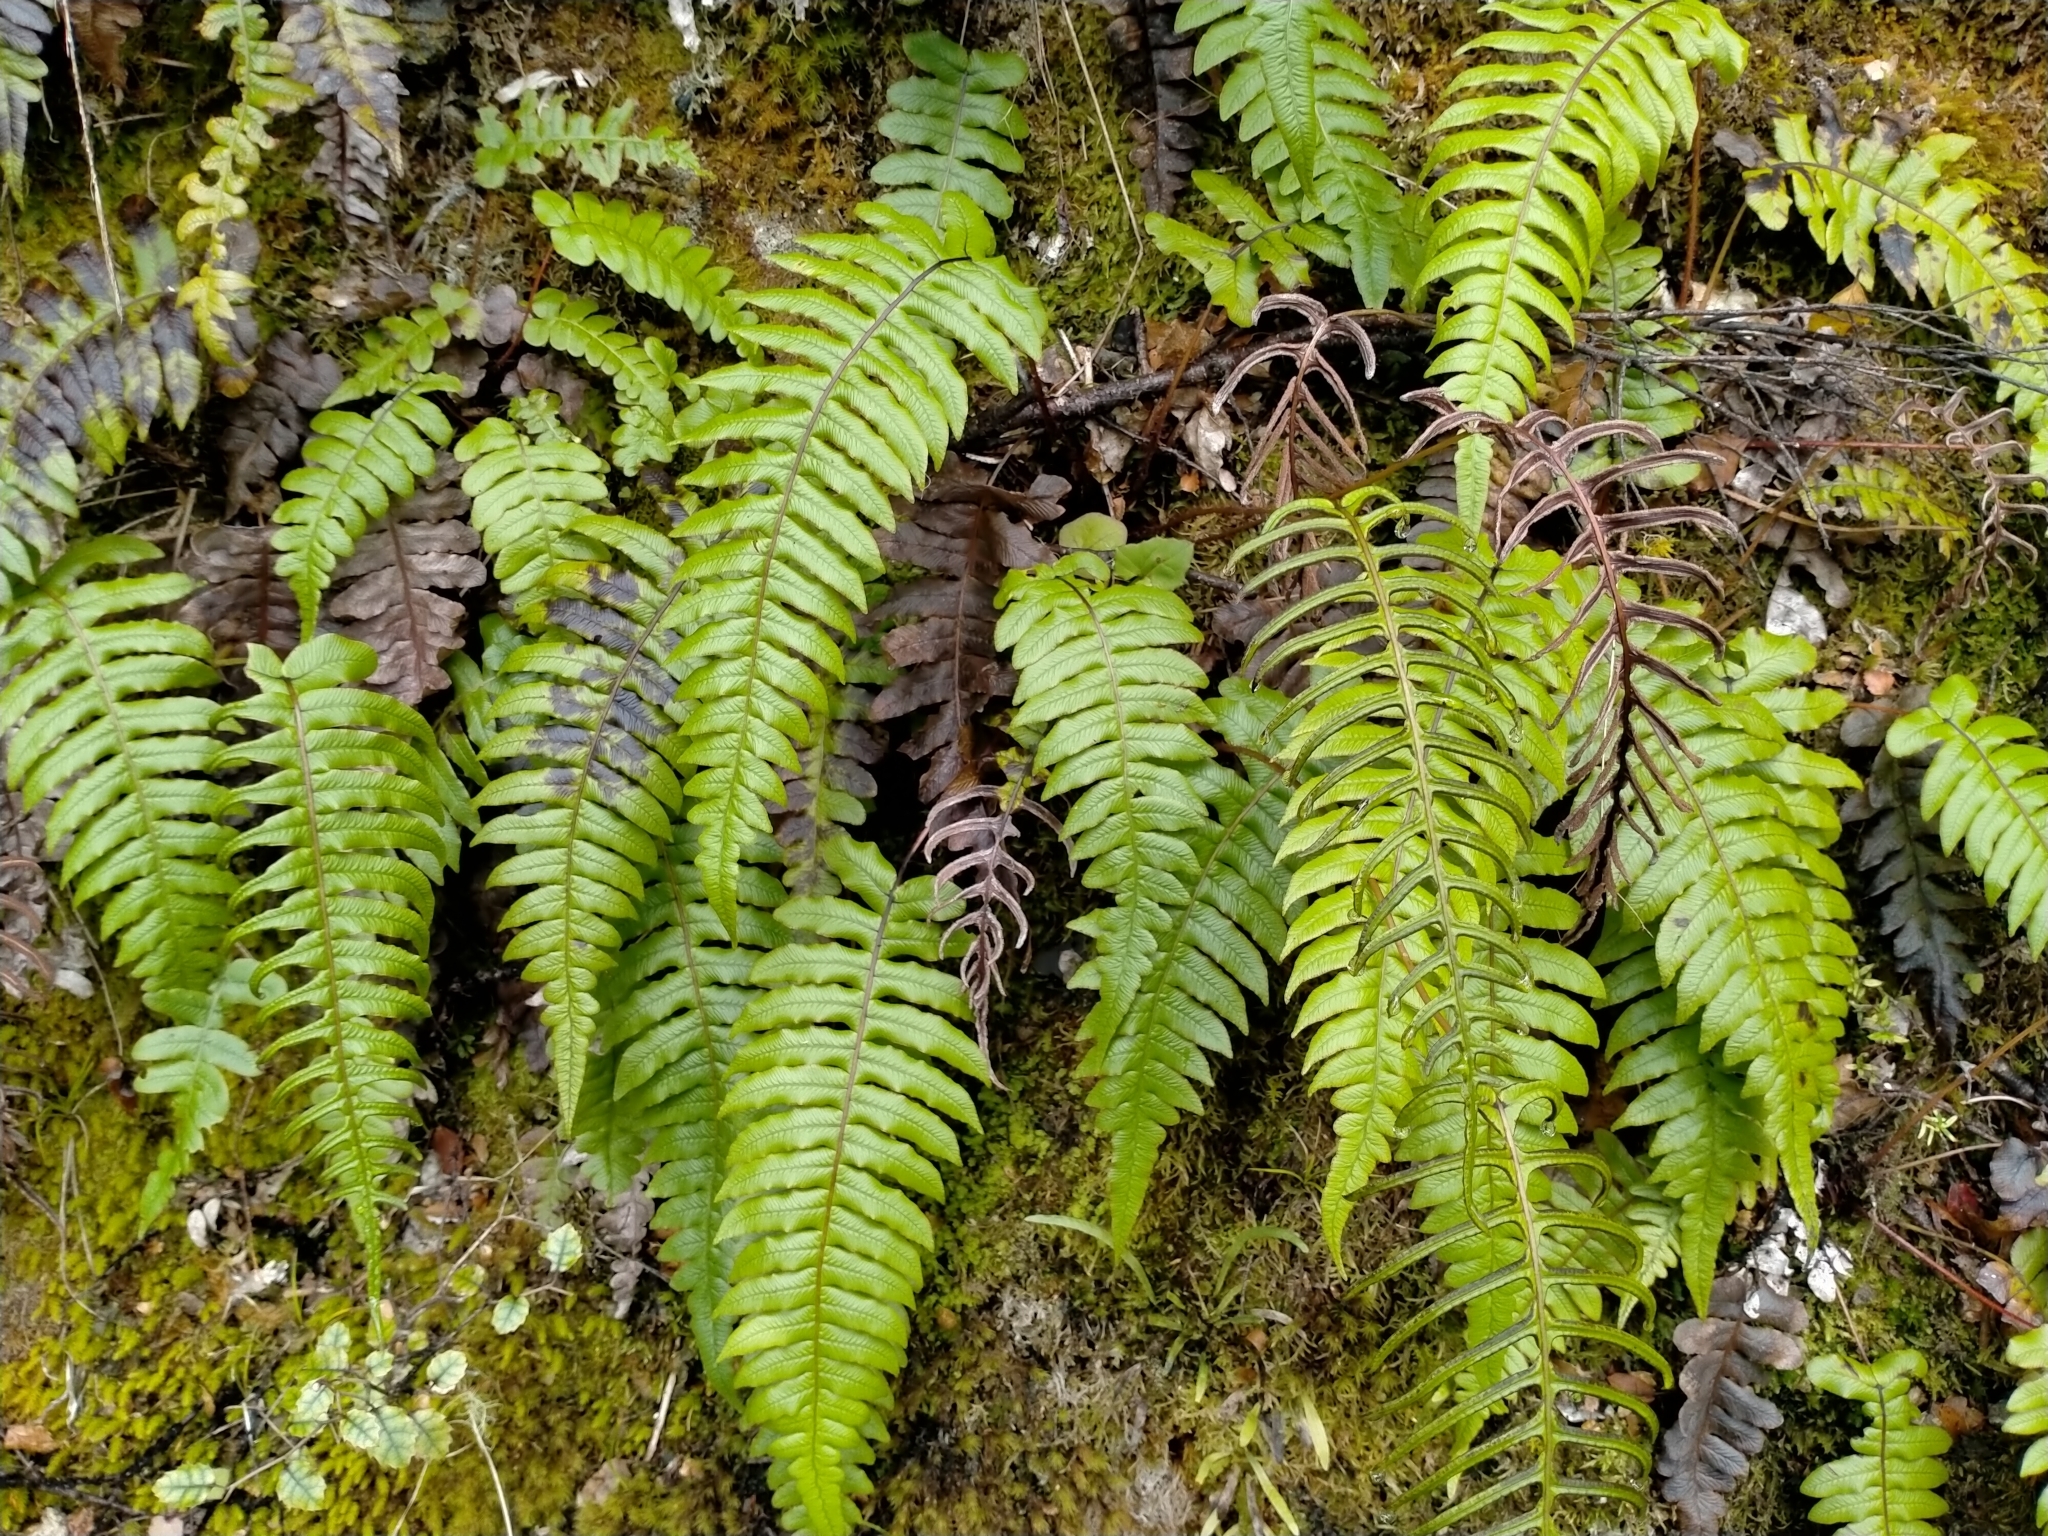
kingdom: Plantae
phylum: Tracheophyta
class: Polypodiopsida
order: Polypodiales
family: Blechnaceae
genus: Cranfillia
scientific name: Cranfillia deltoides
